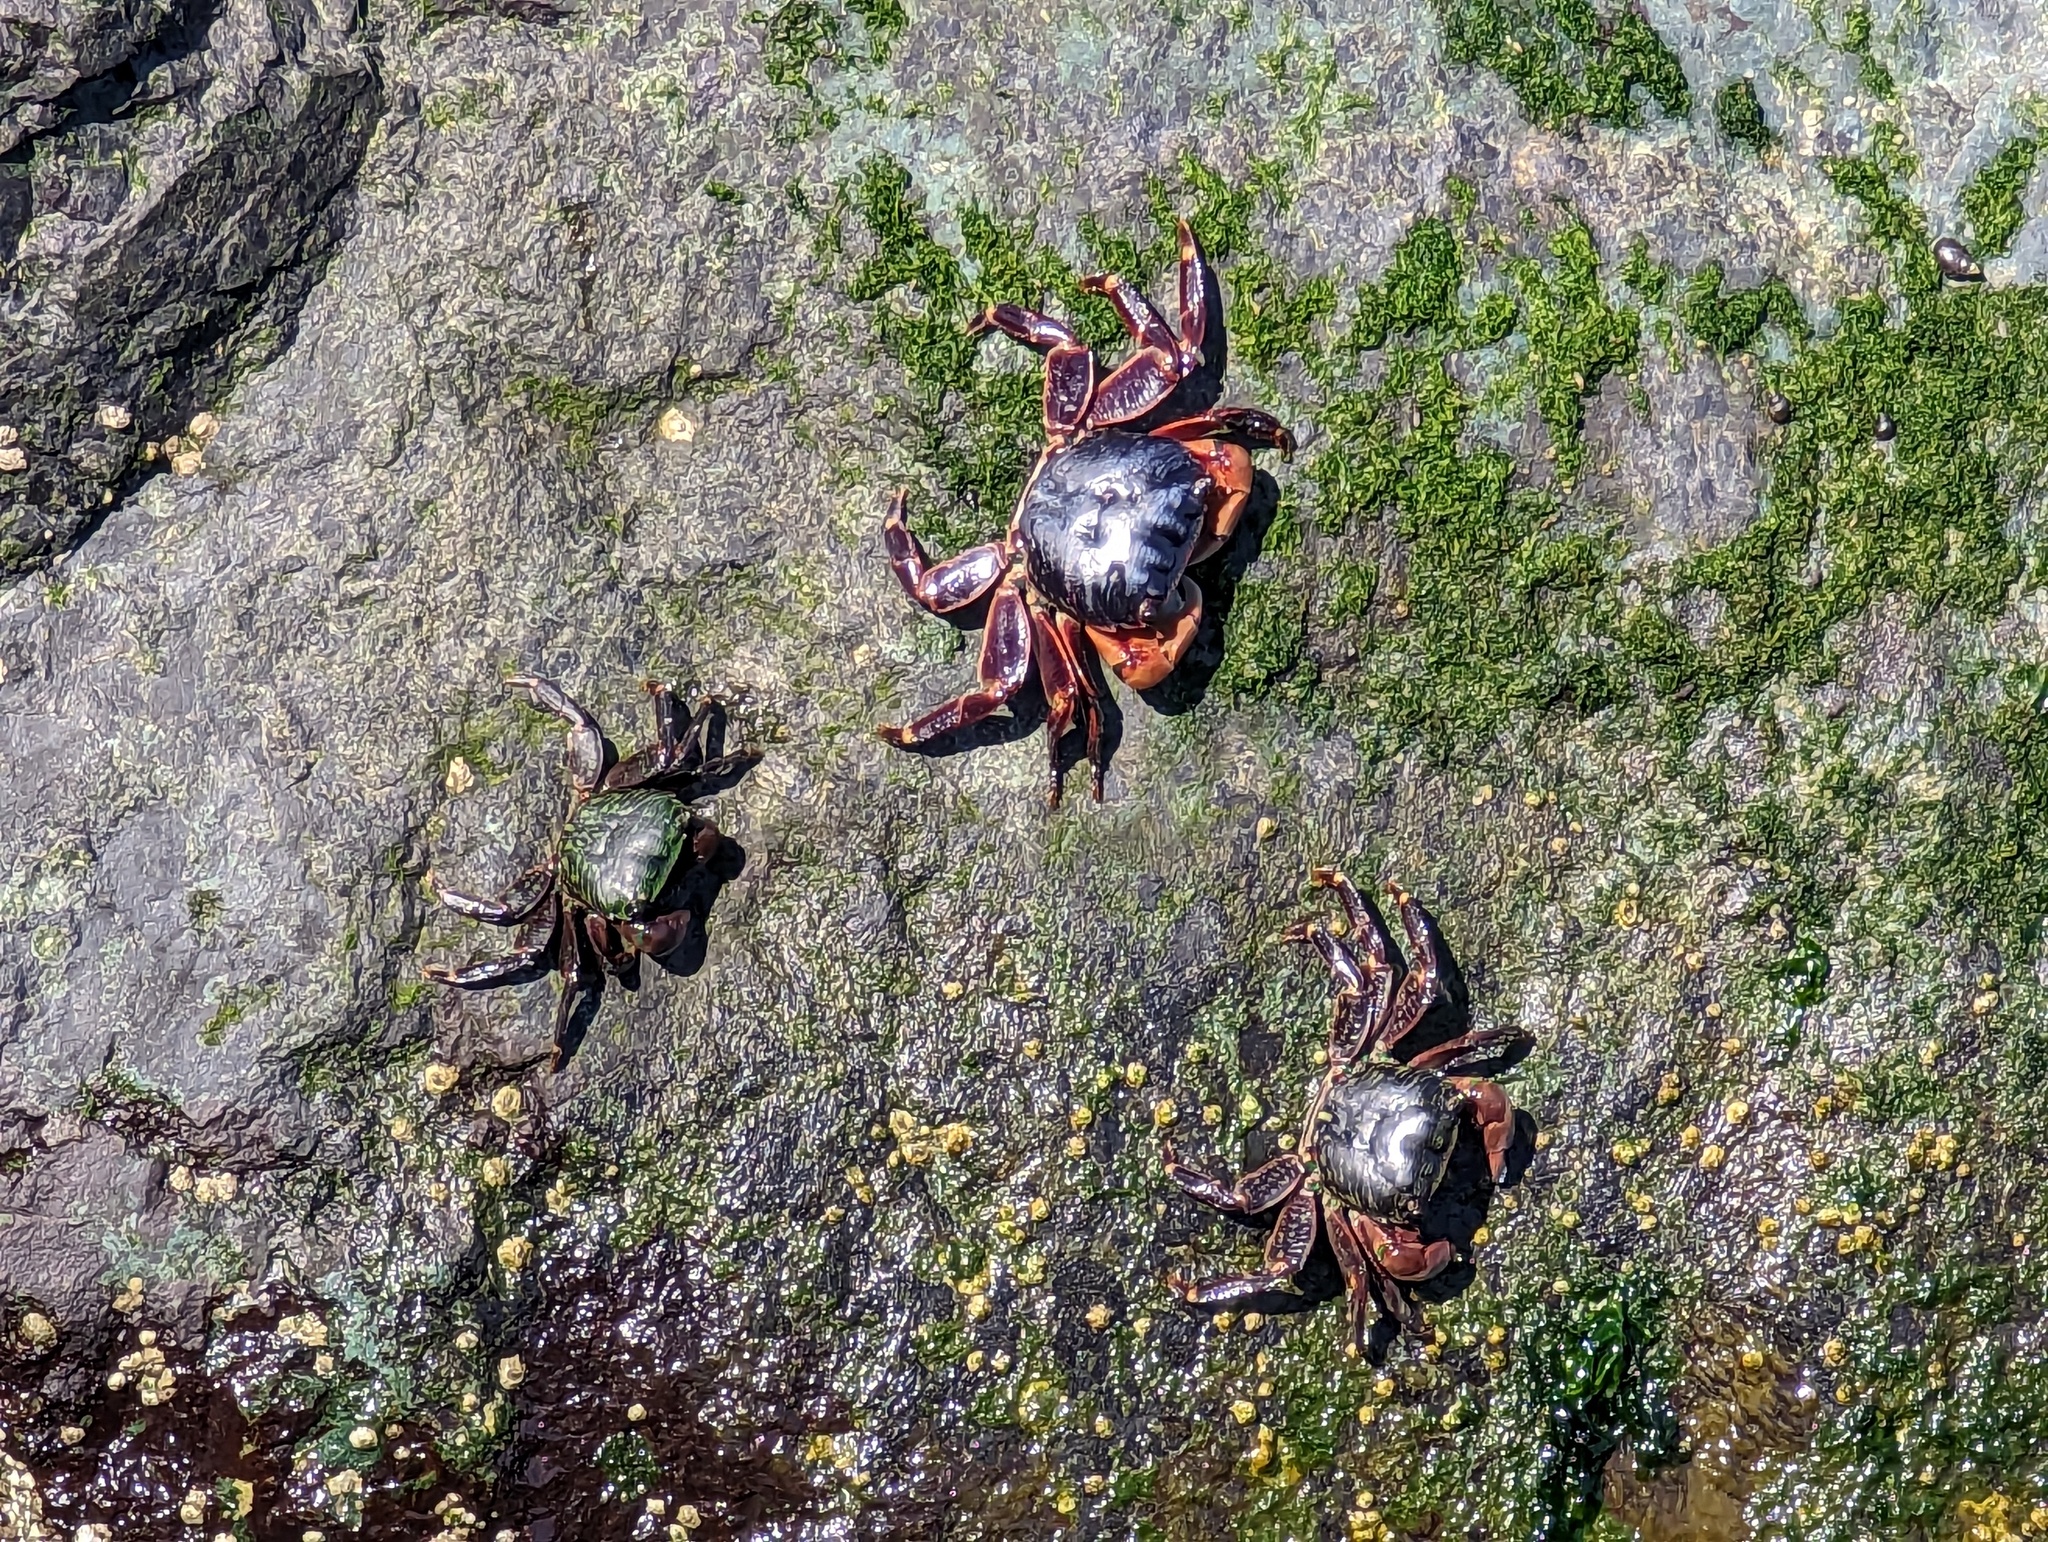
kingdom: Animalia
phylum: Arthropoda
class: Malacostraca
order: Decapoda
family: Grapsidae
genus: Pachygrapsus
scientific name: Pachygrapsus crassipes
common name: Striped shore crab
